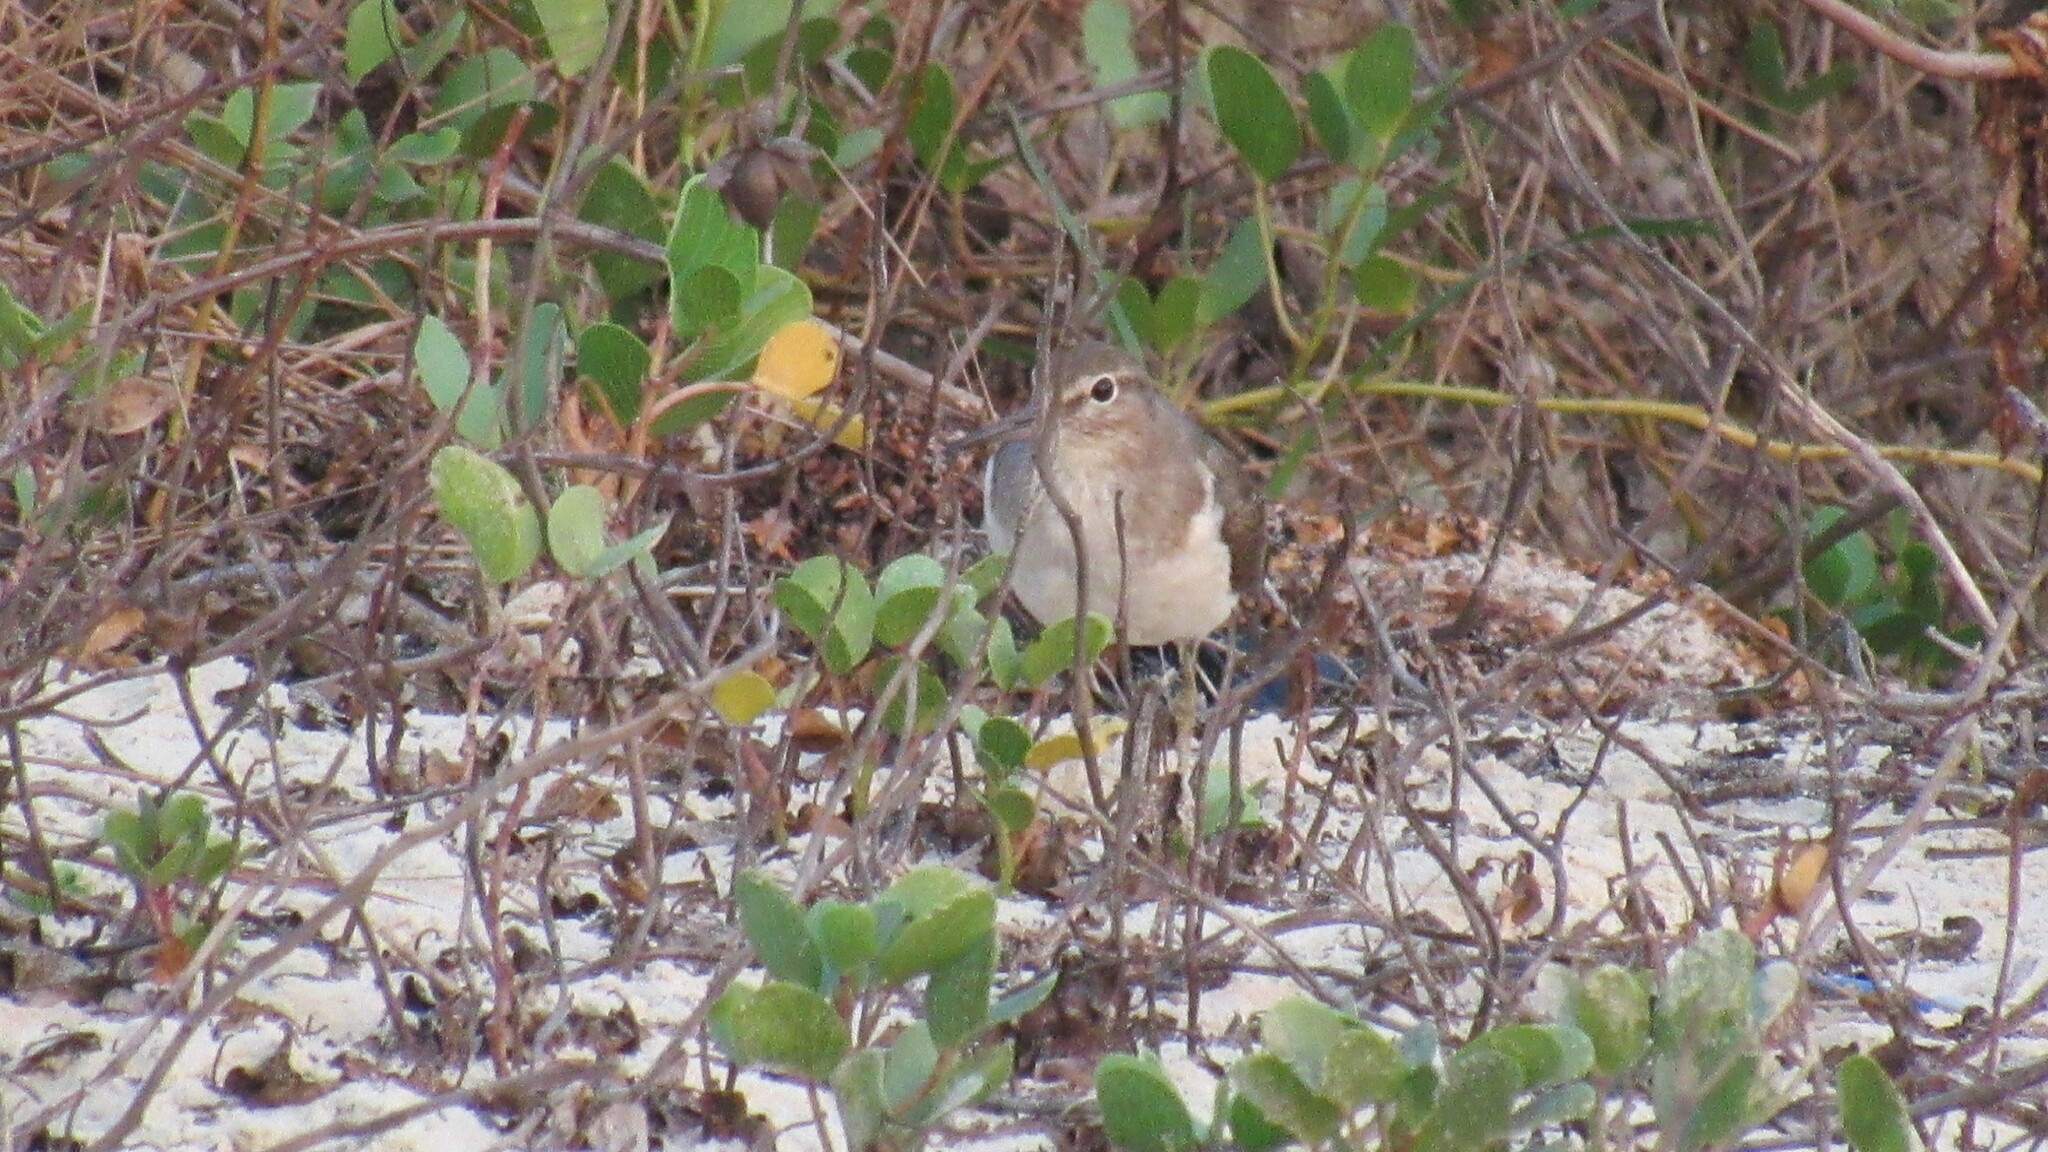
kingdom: Animalia
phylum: Chordata
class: Aves
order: Charadriiformes
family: Scolopacidae
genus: Actitis
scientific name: Actitis hypoleucos
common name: Common sandpiper
